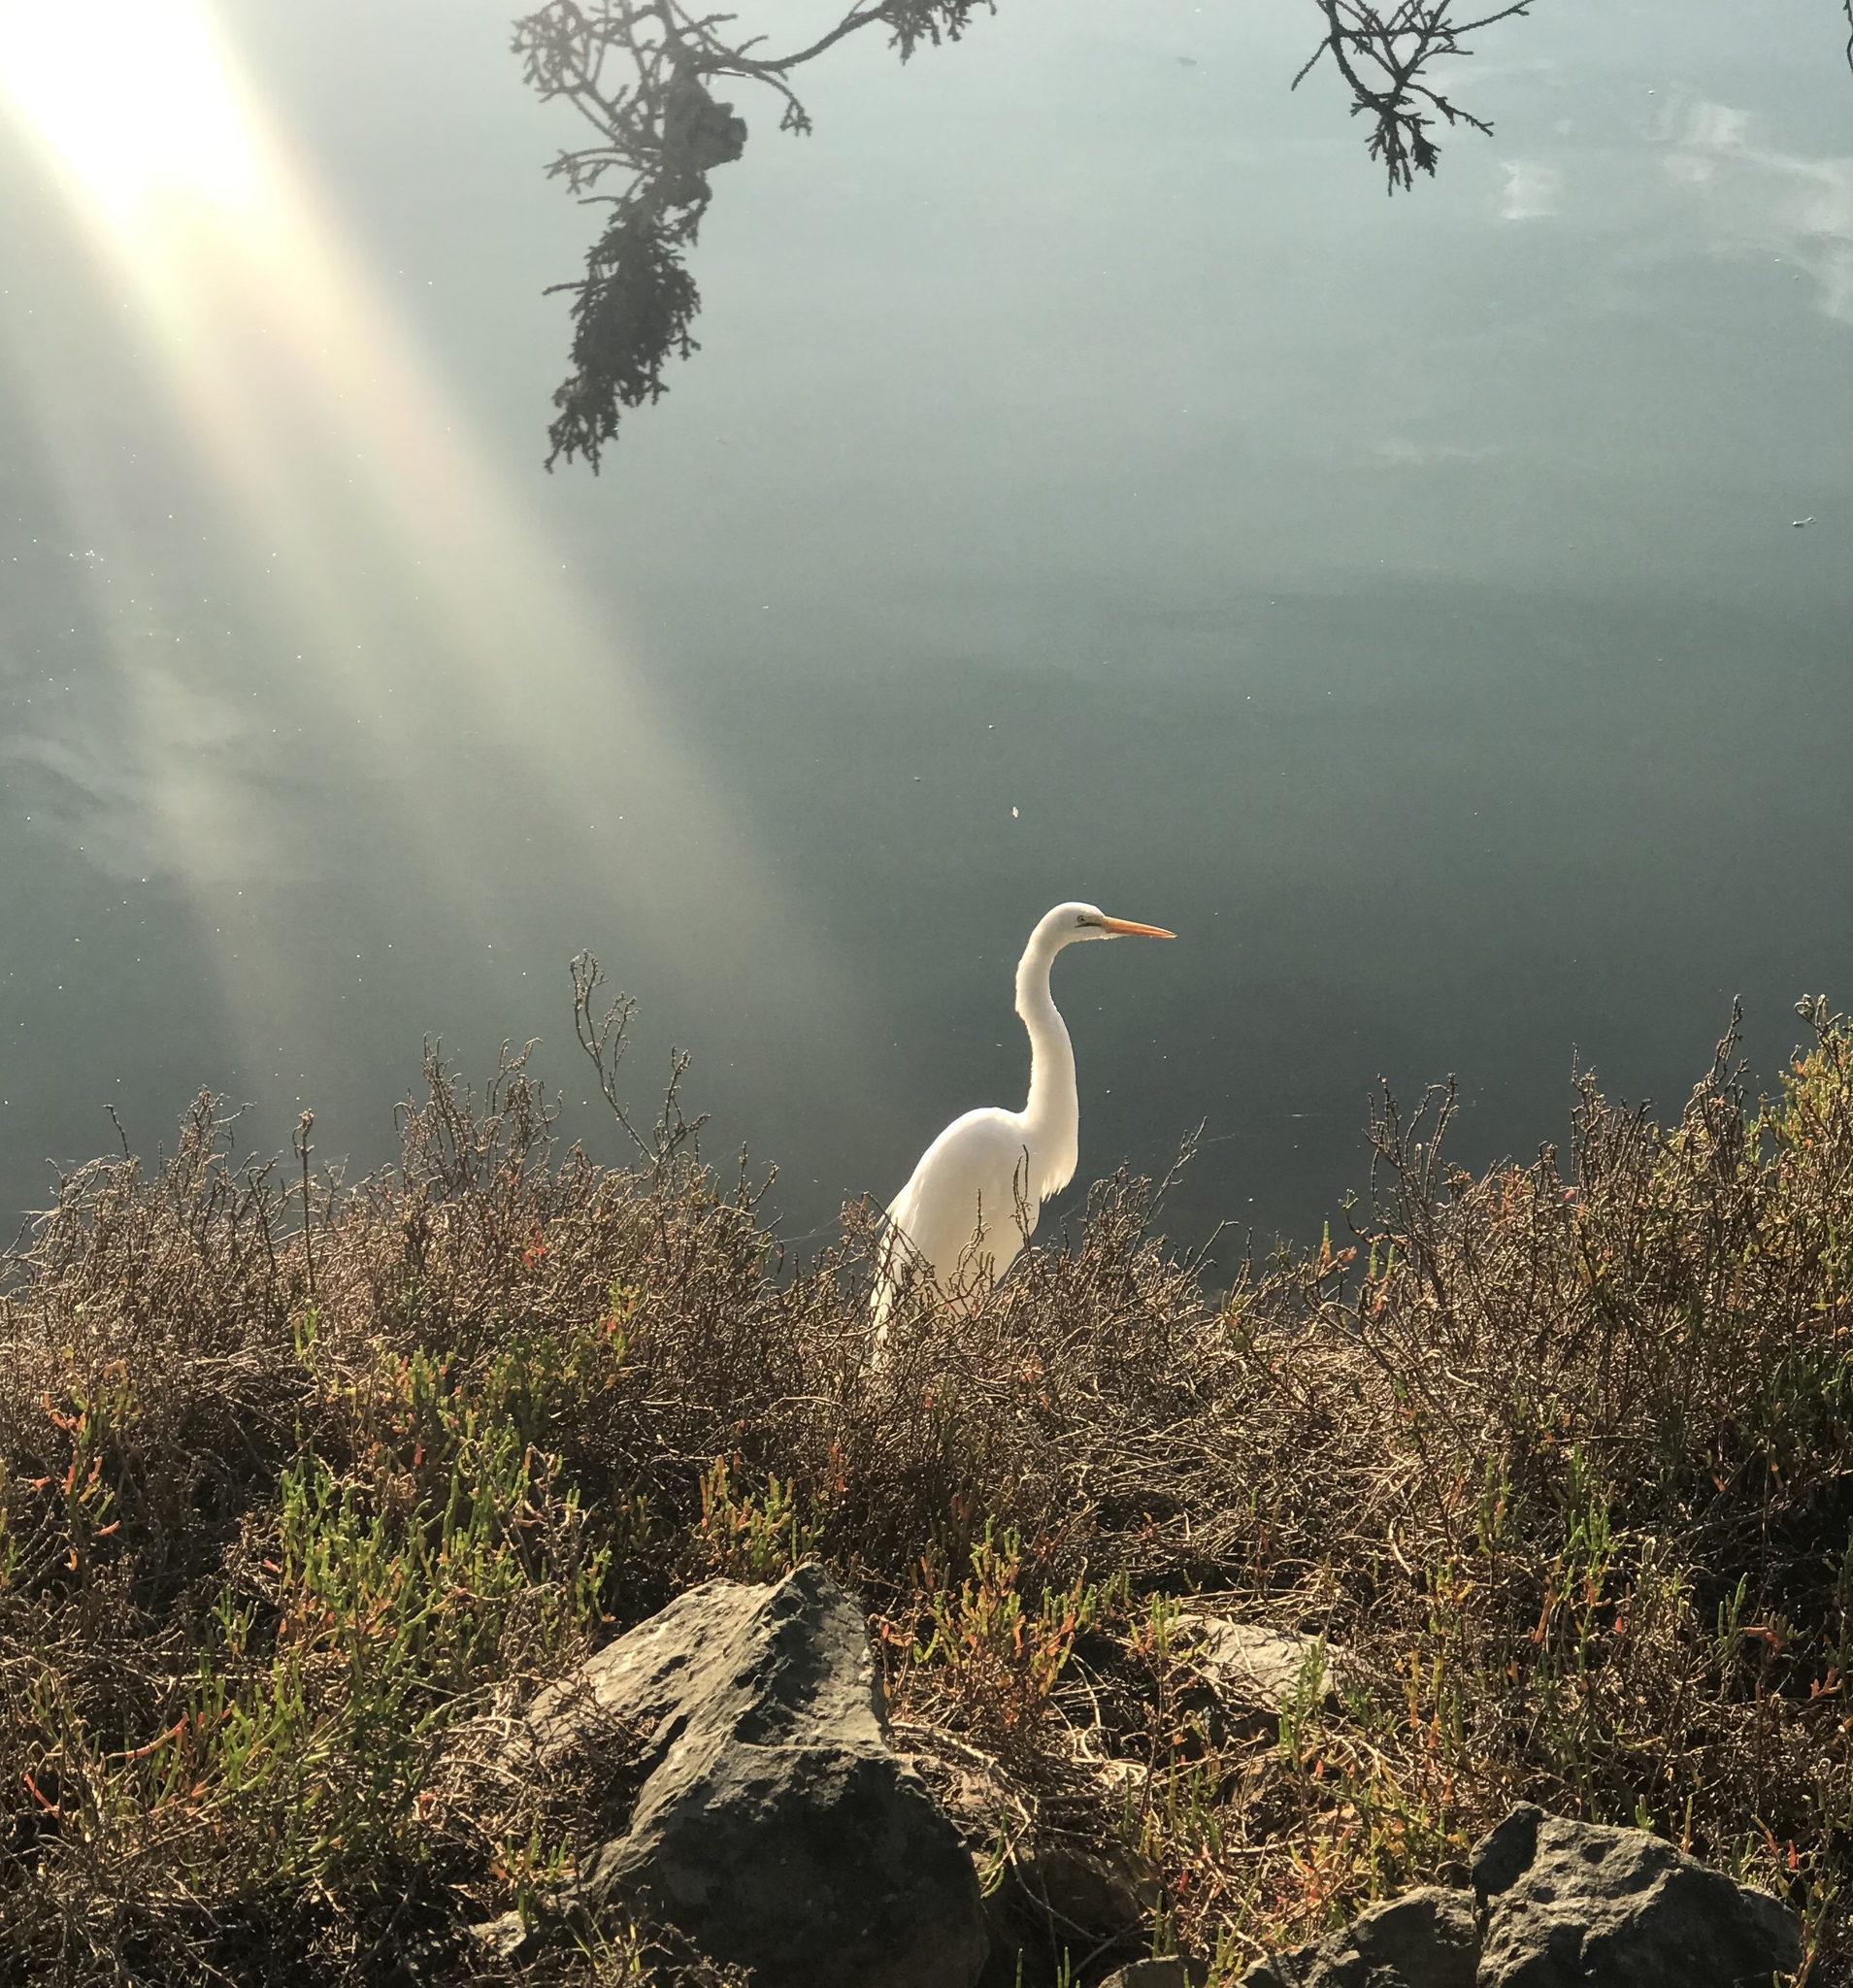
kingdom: Animalia
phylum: Chordata
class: Aves
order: Pelecaniformes
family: Ardeidae
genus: Ardea
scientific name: Ardea alba
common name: Great egret
